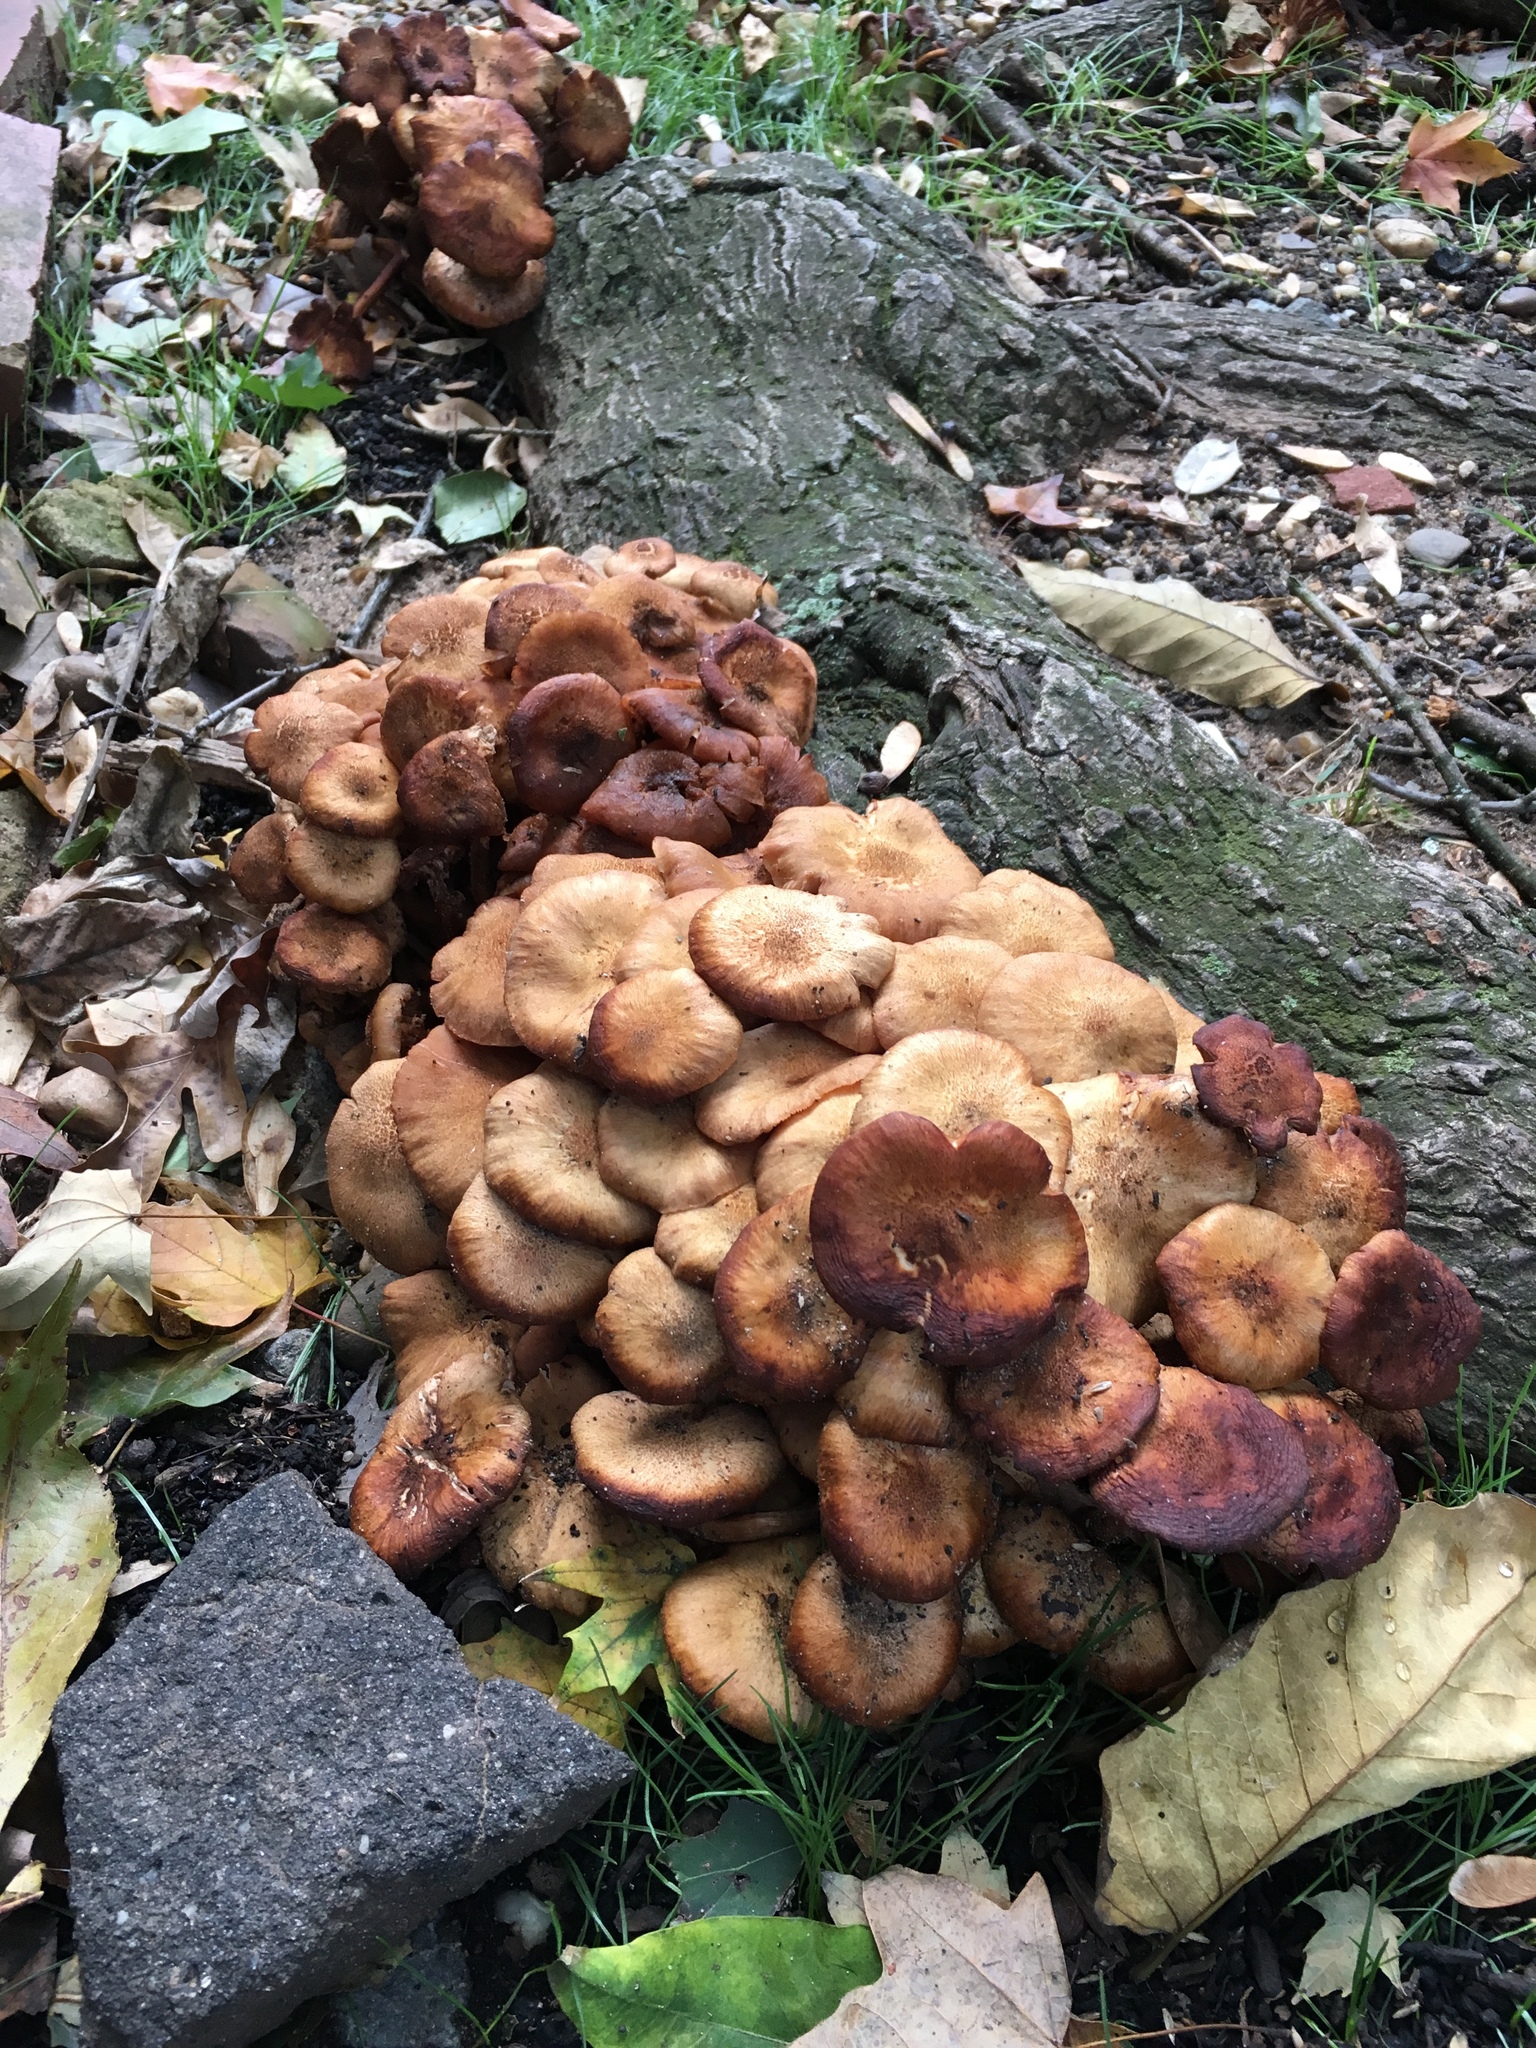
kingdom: Fungi
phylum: Basidiomycota
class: Agaricomycetes
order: Agaricales
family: Physalacriaceae
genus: Desarmillaria
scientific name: Desarmillaria caespitosa
